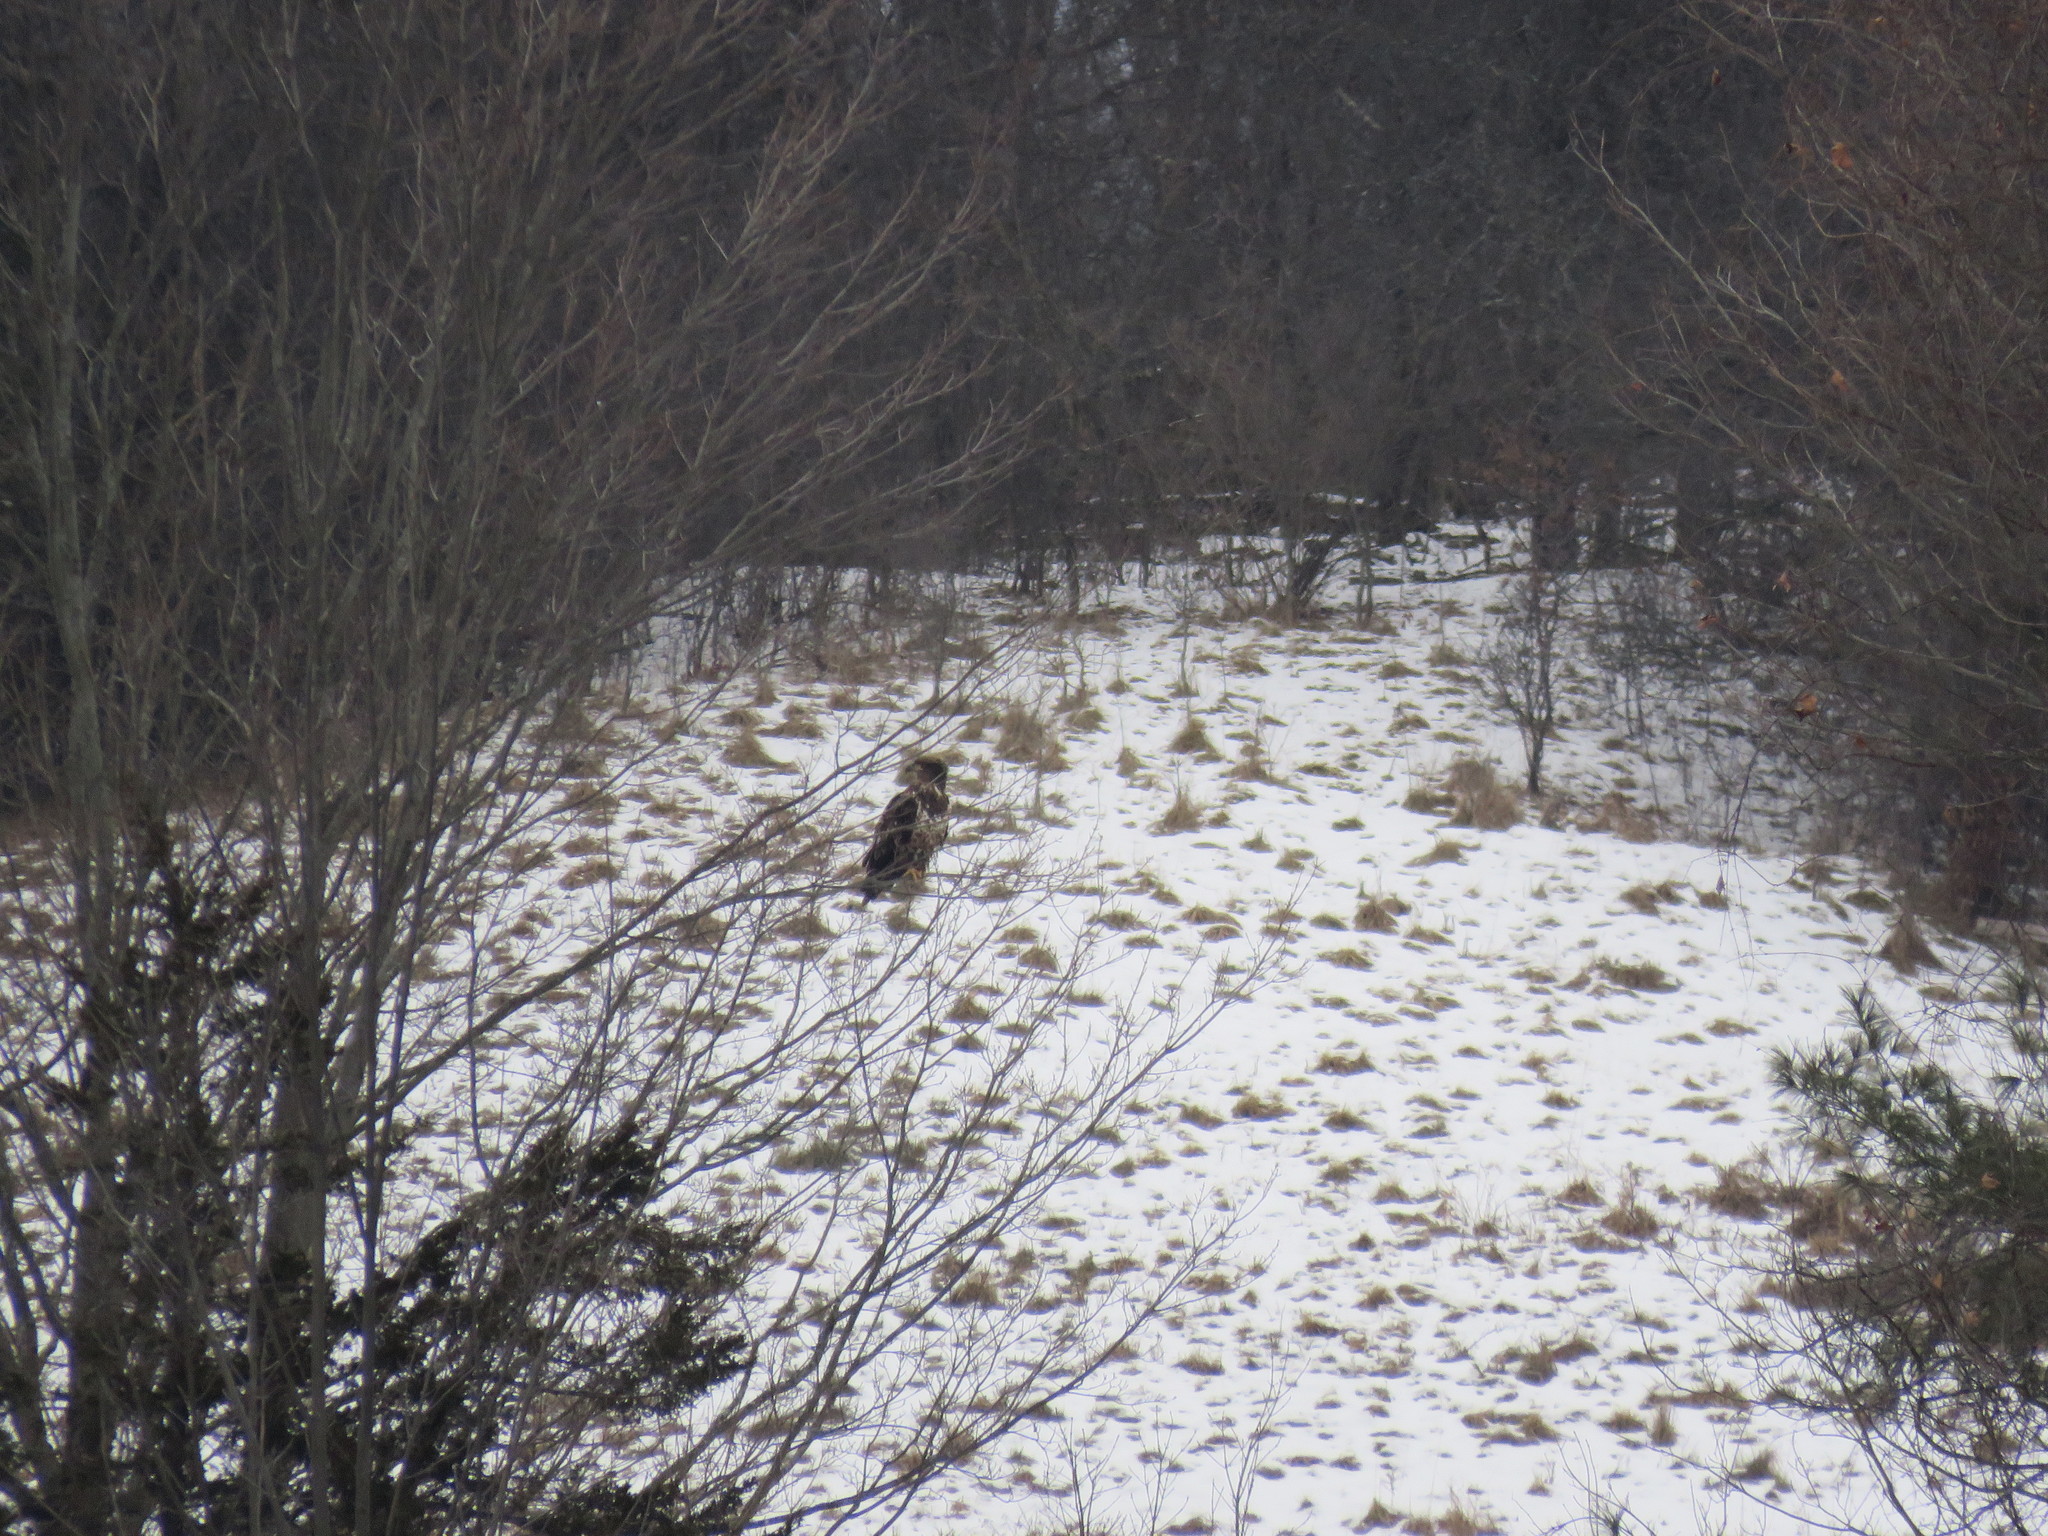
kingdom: Animalia
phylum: Chordata
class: Aves
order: Accipitriformes
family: Accipitridae
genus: Haliaeetus
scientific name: Haliaeetus leucocephalus
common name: Bald eagle
